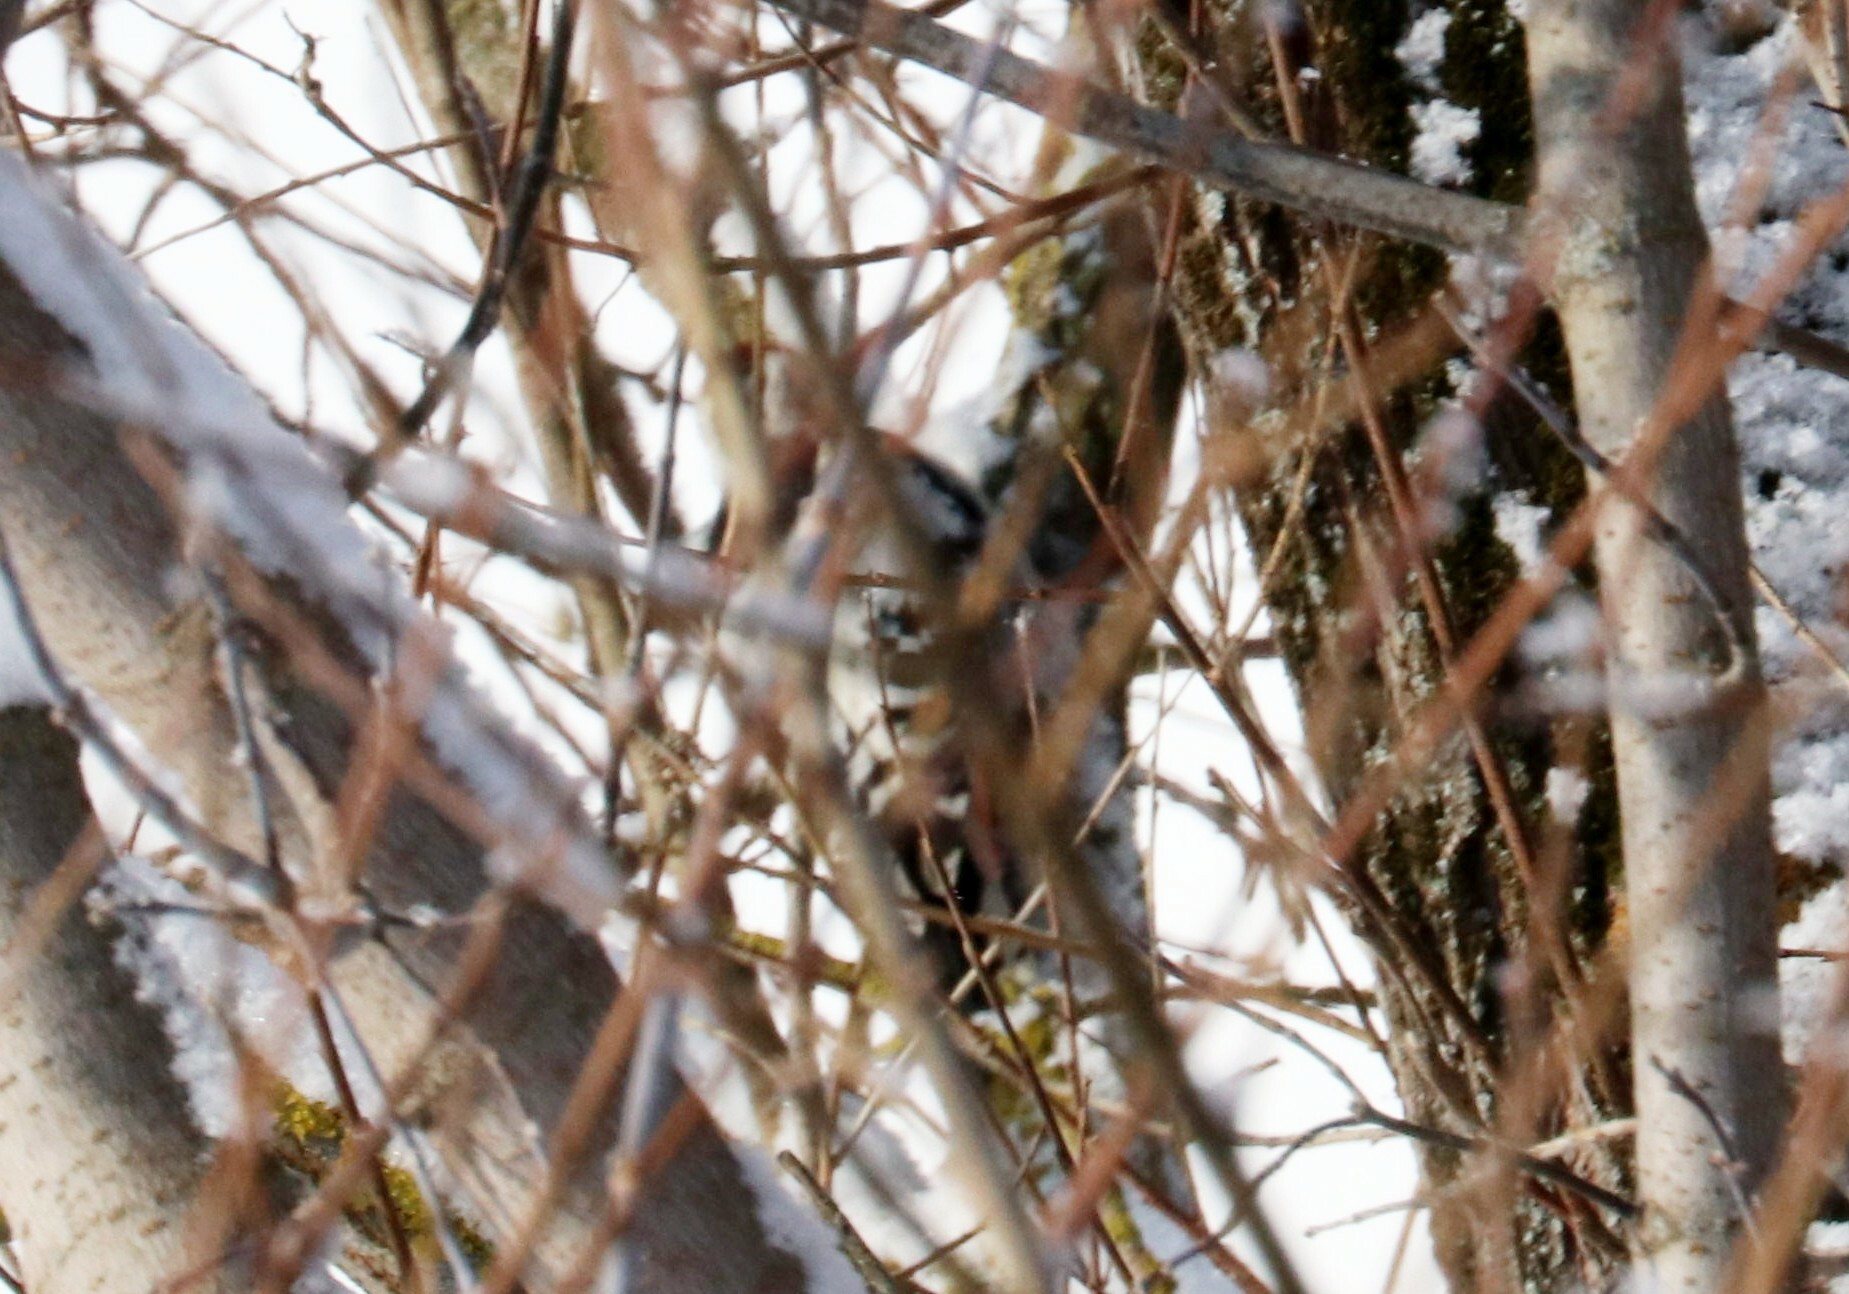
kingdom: Animalia
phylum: Chordata
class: Aves
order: Piciformes
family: Picidae
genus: Dendrocopos
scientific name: Dendrocopos leucotos
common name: White-backed woodpecker
